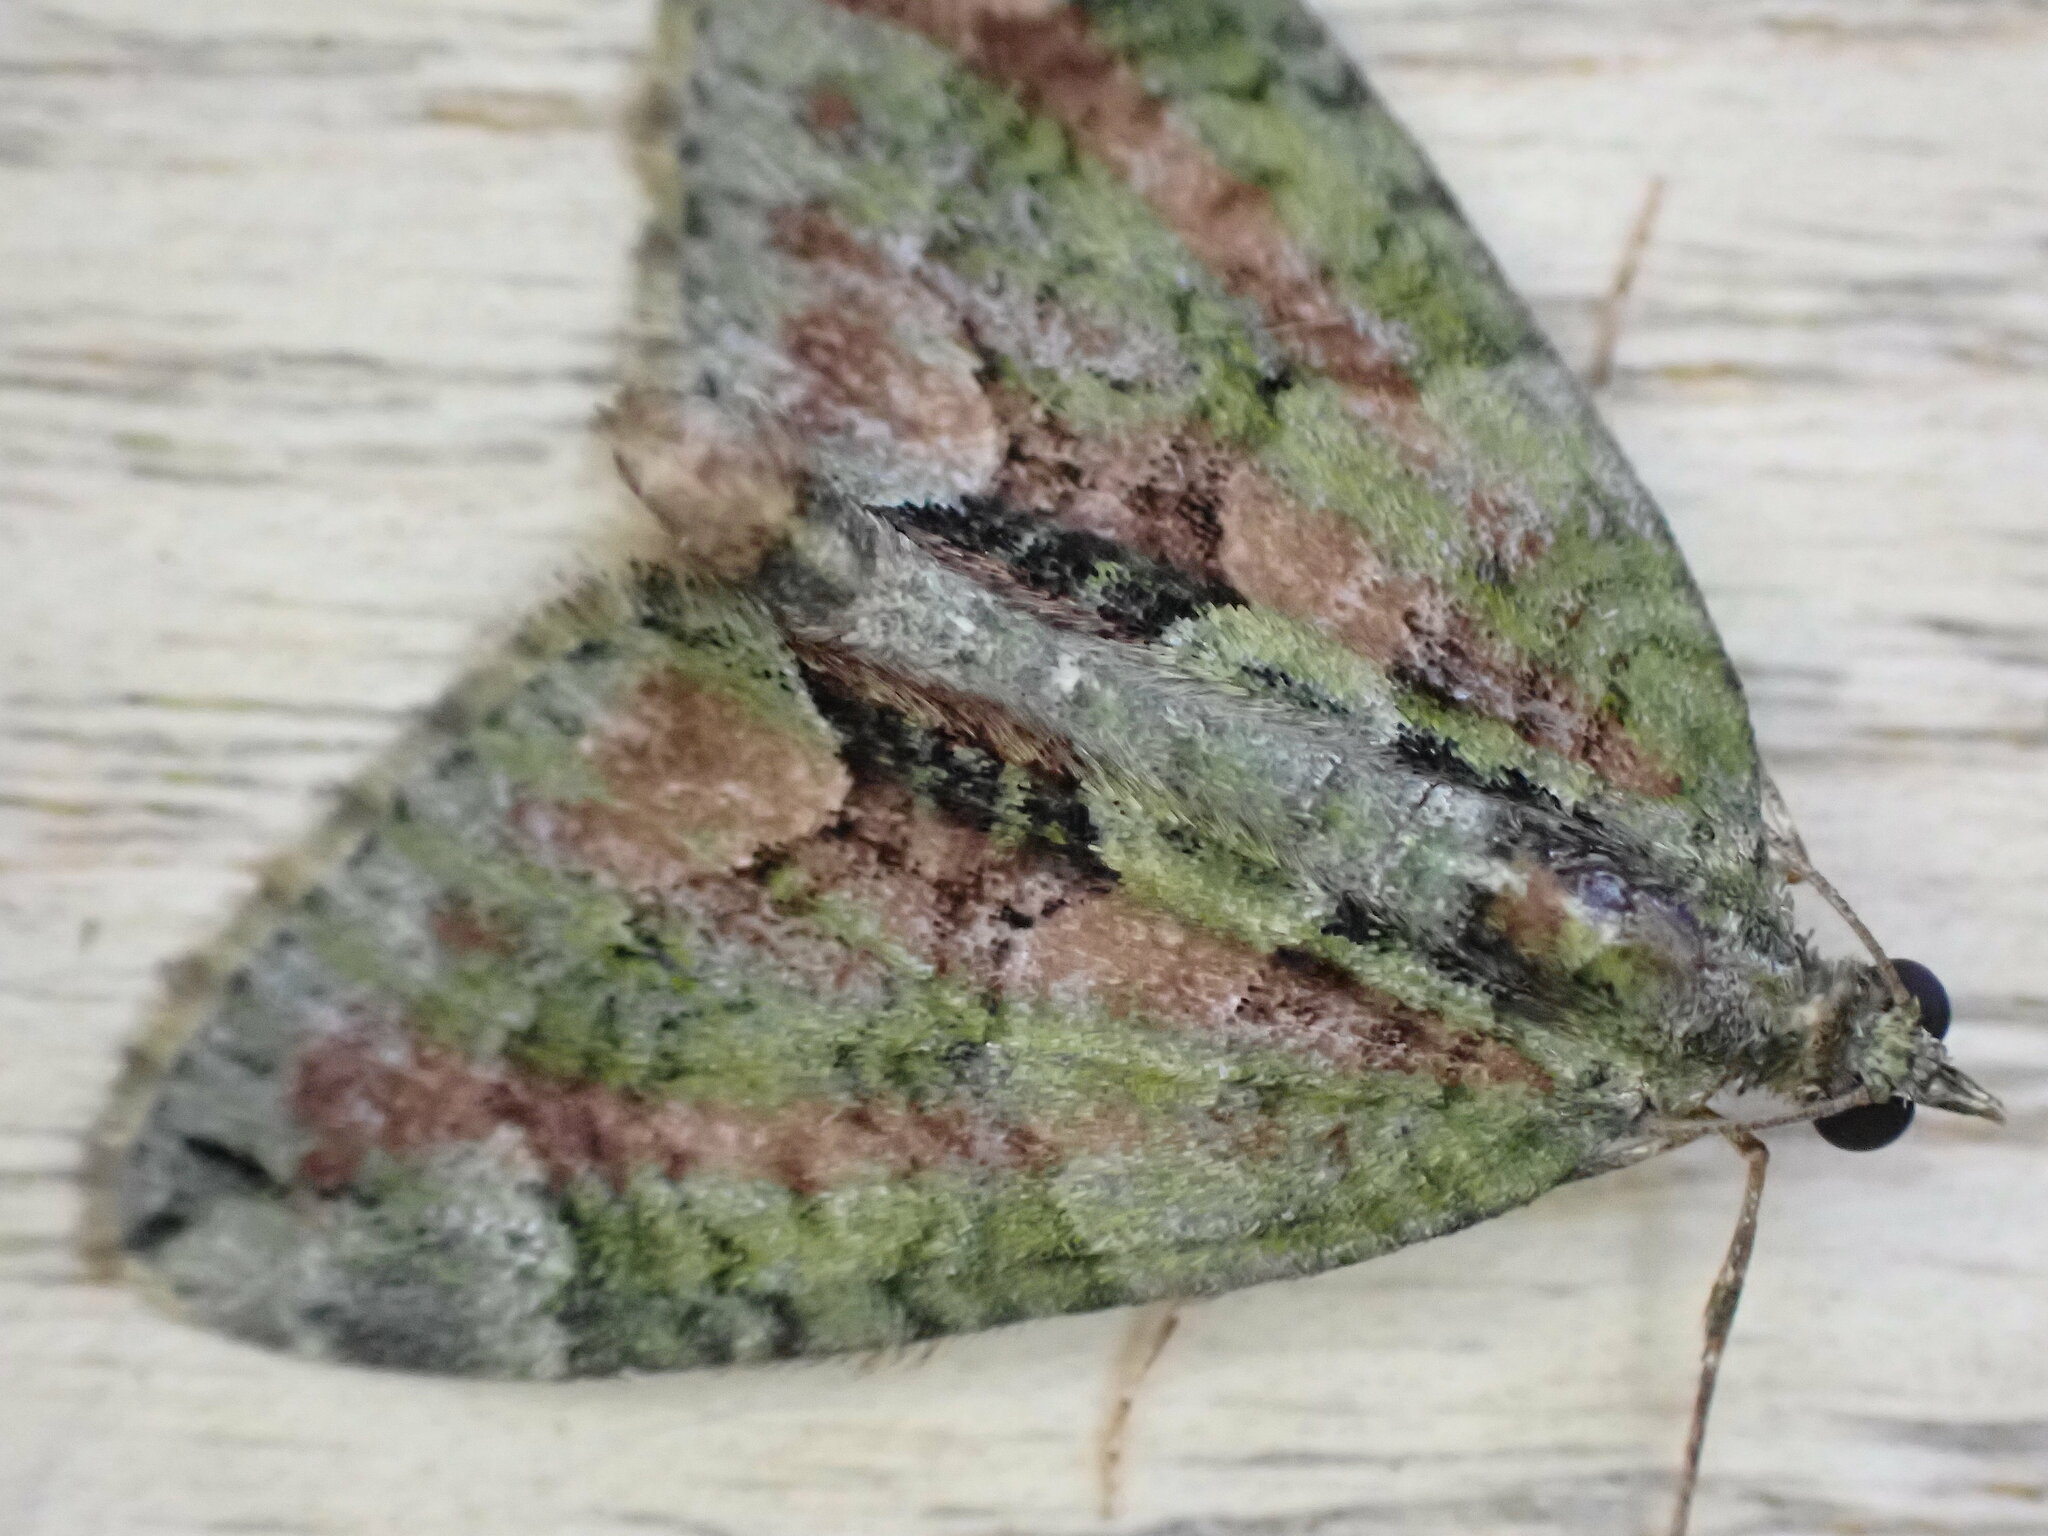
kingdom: Animalia
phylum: Arthropoda
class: Insecta
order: Lepidoptera
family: Geometridae
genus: Chloroclysta
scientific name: Chloroclysta siterata
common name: Red-green carpet
